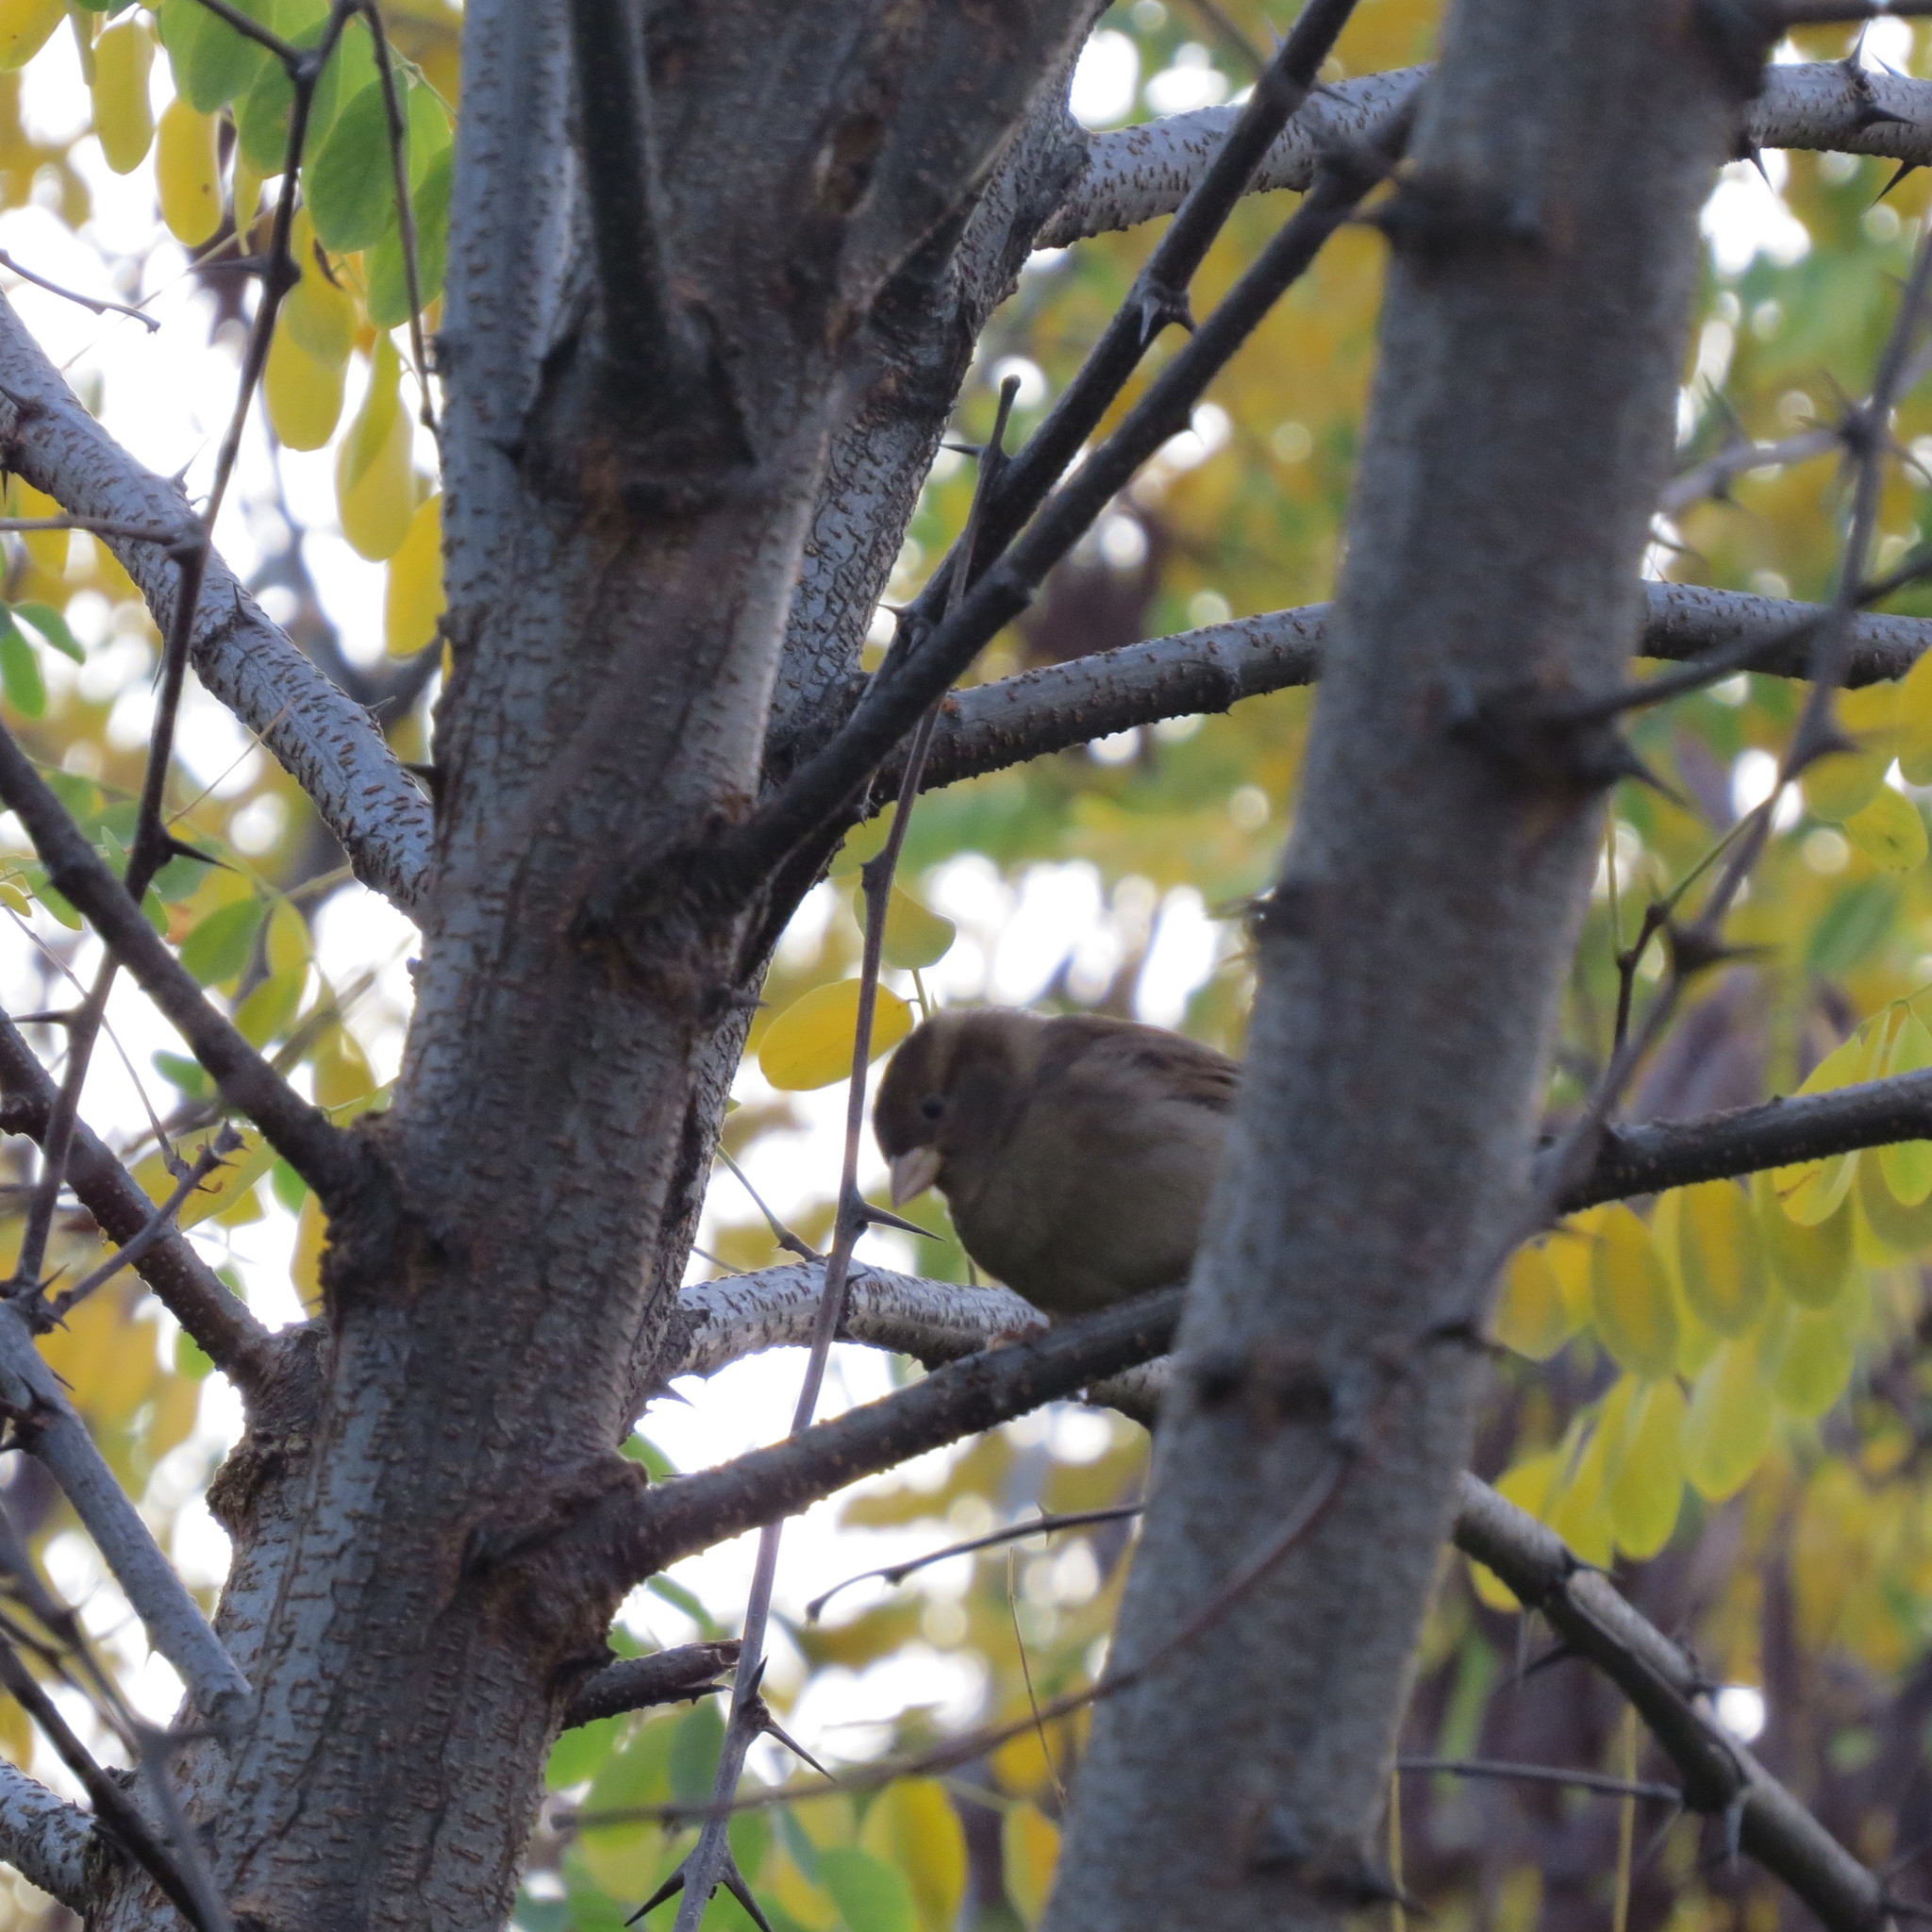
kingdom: Animalia
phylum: Chordata
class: Aves
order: Passeriformes
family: Passeridae
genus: Passer
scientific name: Passer domesticus
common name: House sparrow
